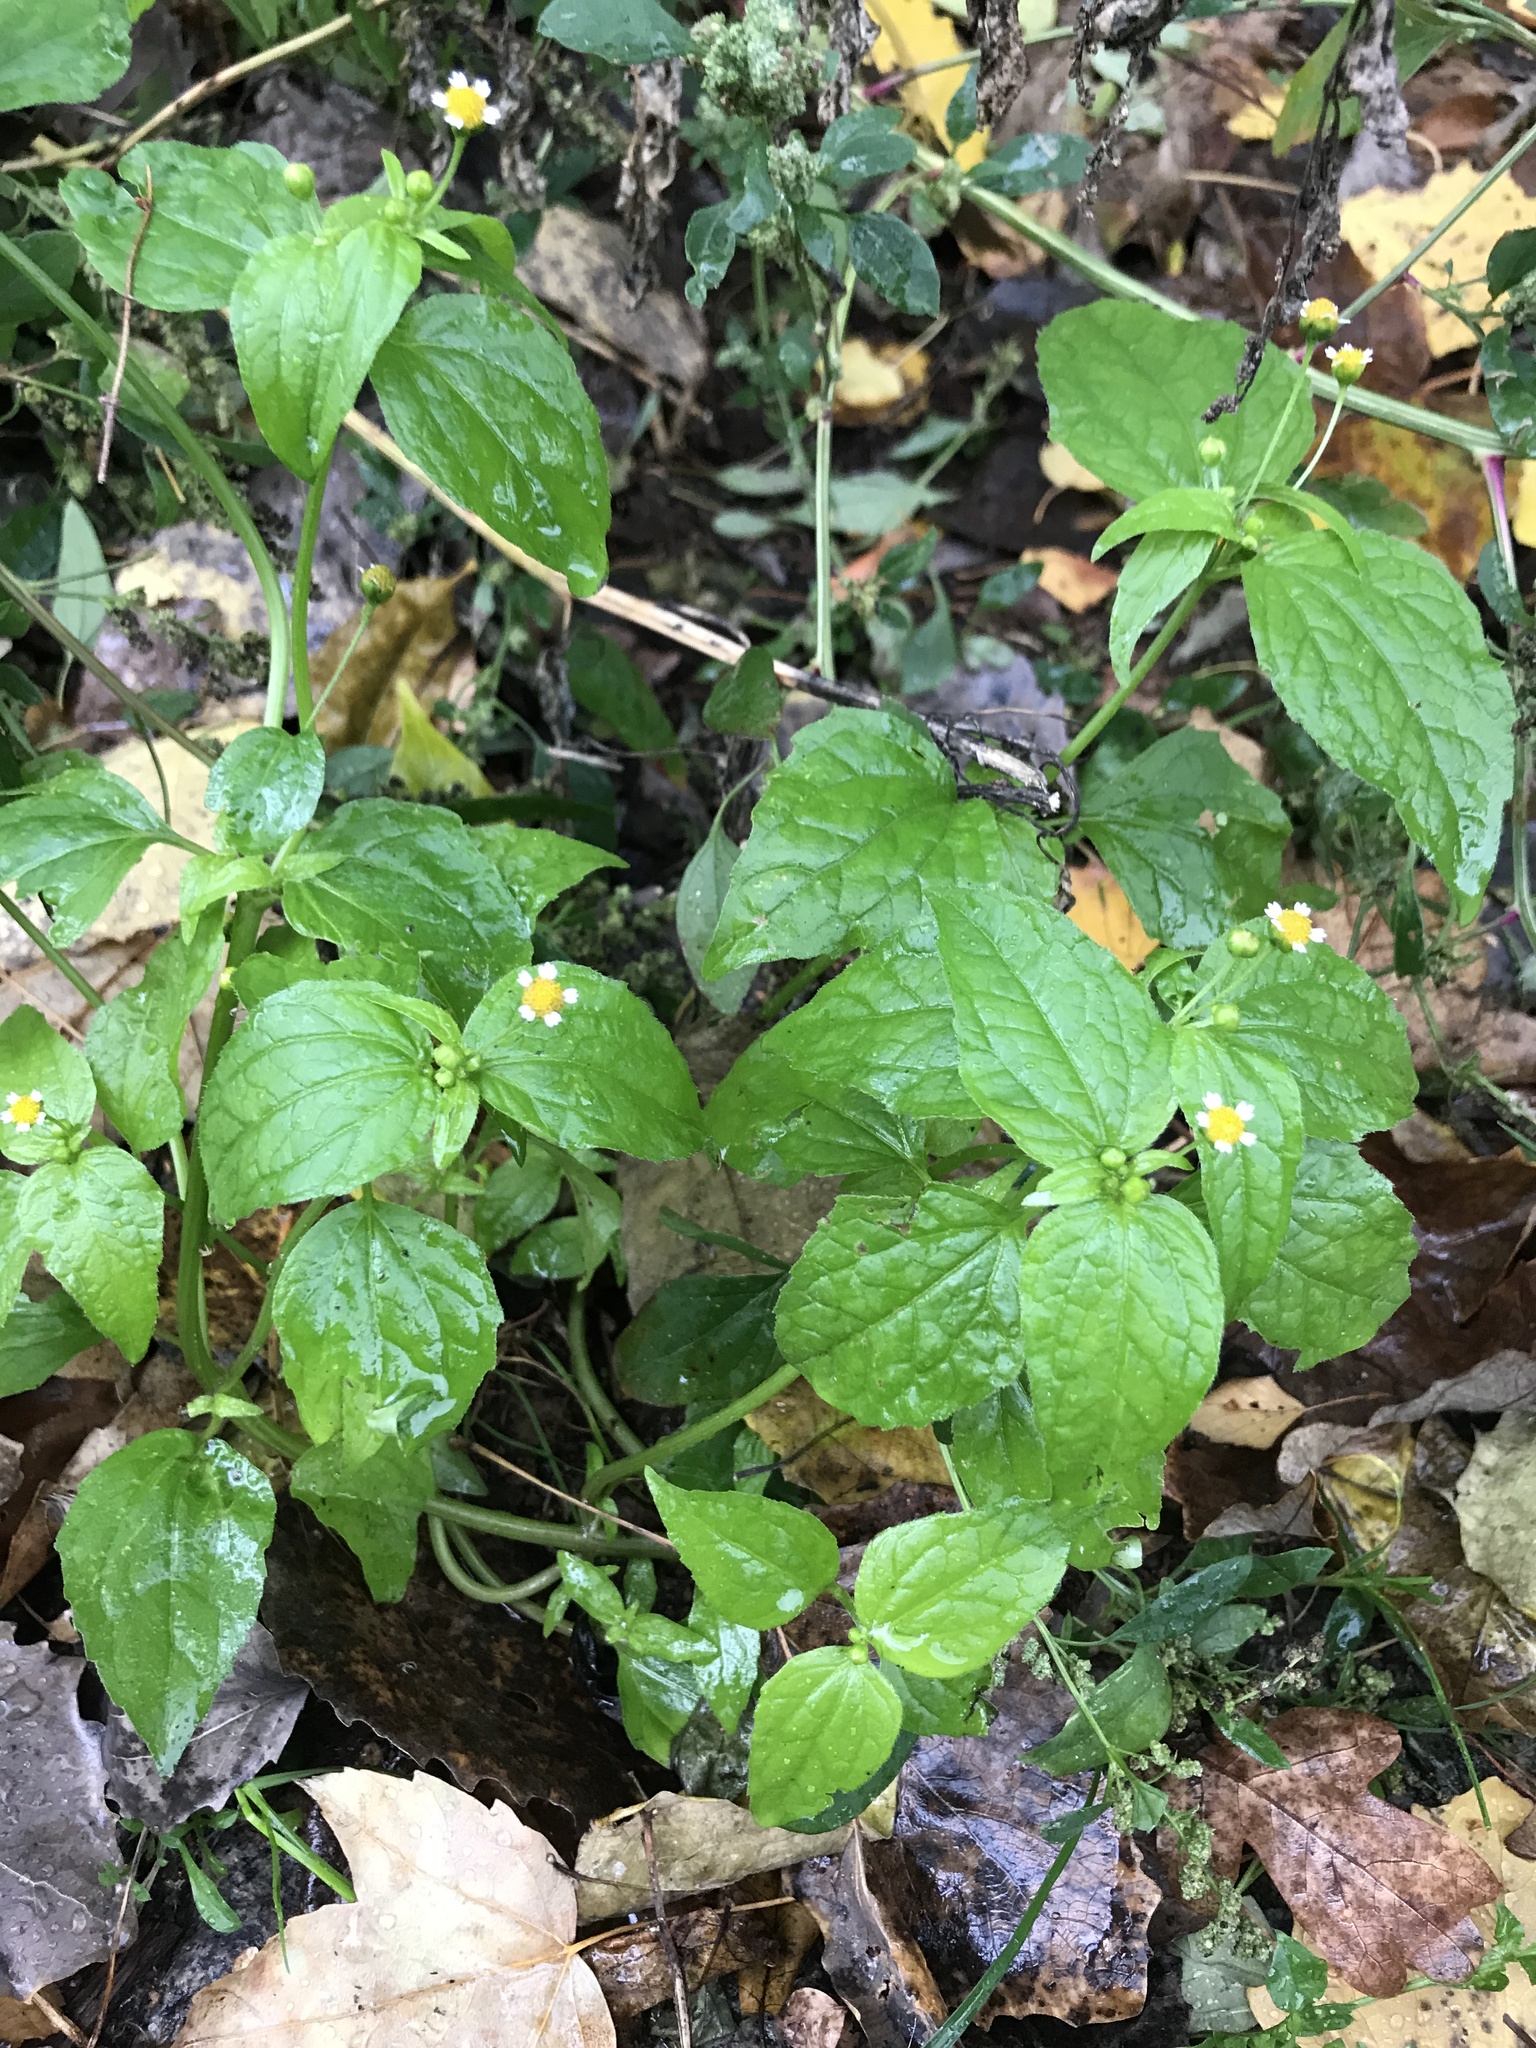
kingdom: Plantae
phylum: Tracheophyta
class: Magnoliopsida
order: Asterales
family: Asteraceae
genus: Galinsoga
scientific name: Galinsoga parviflora
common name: Gallant soldier
